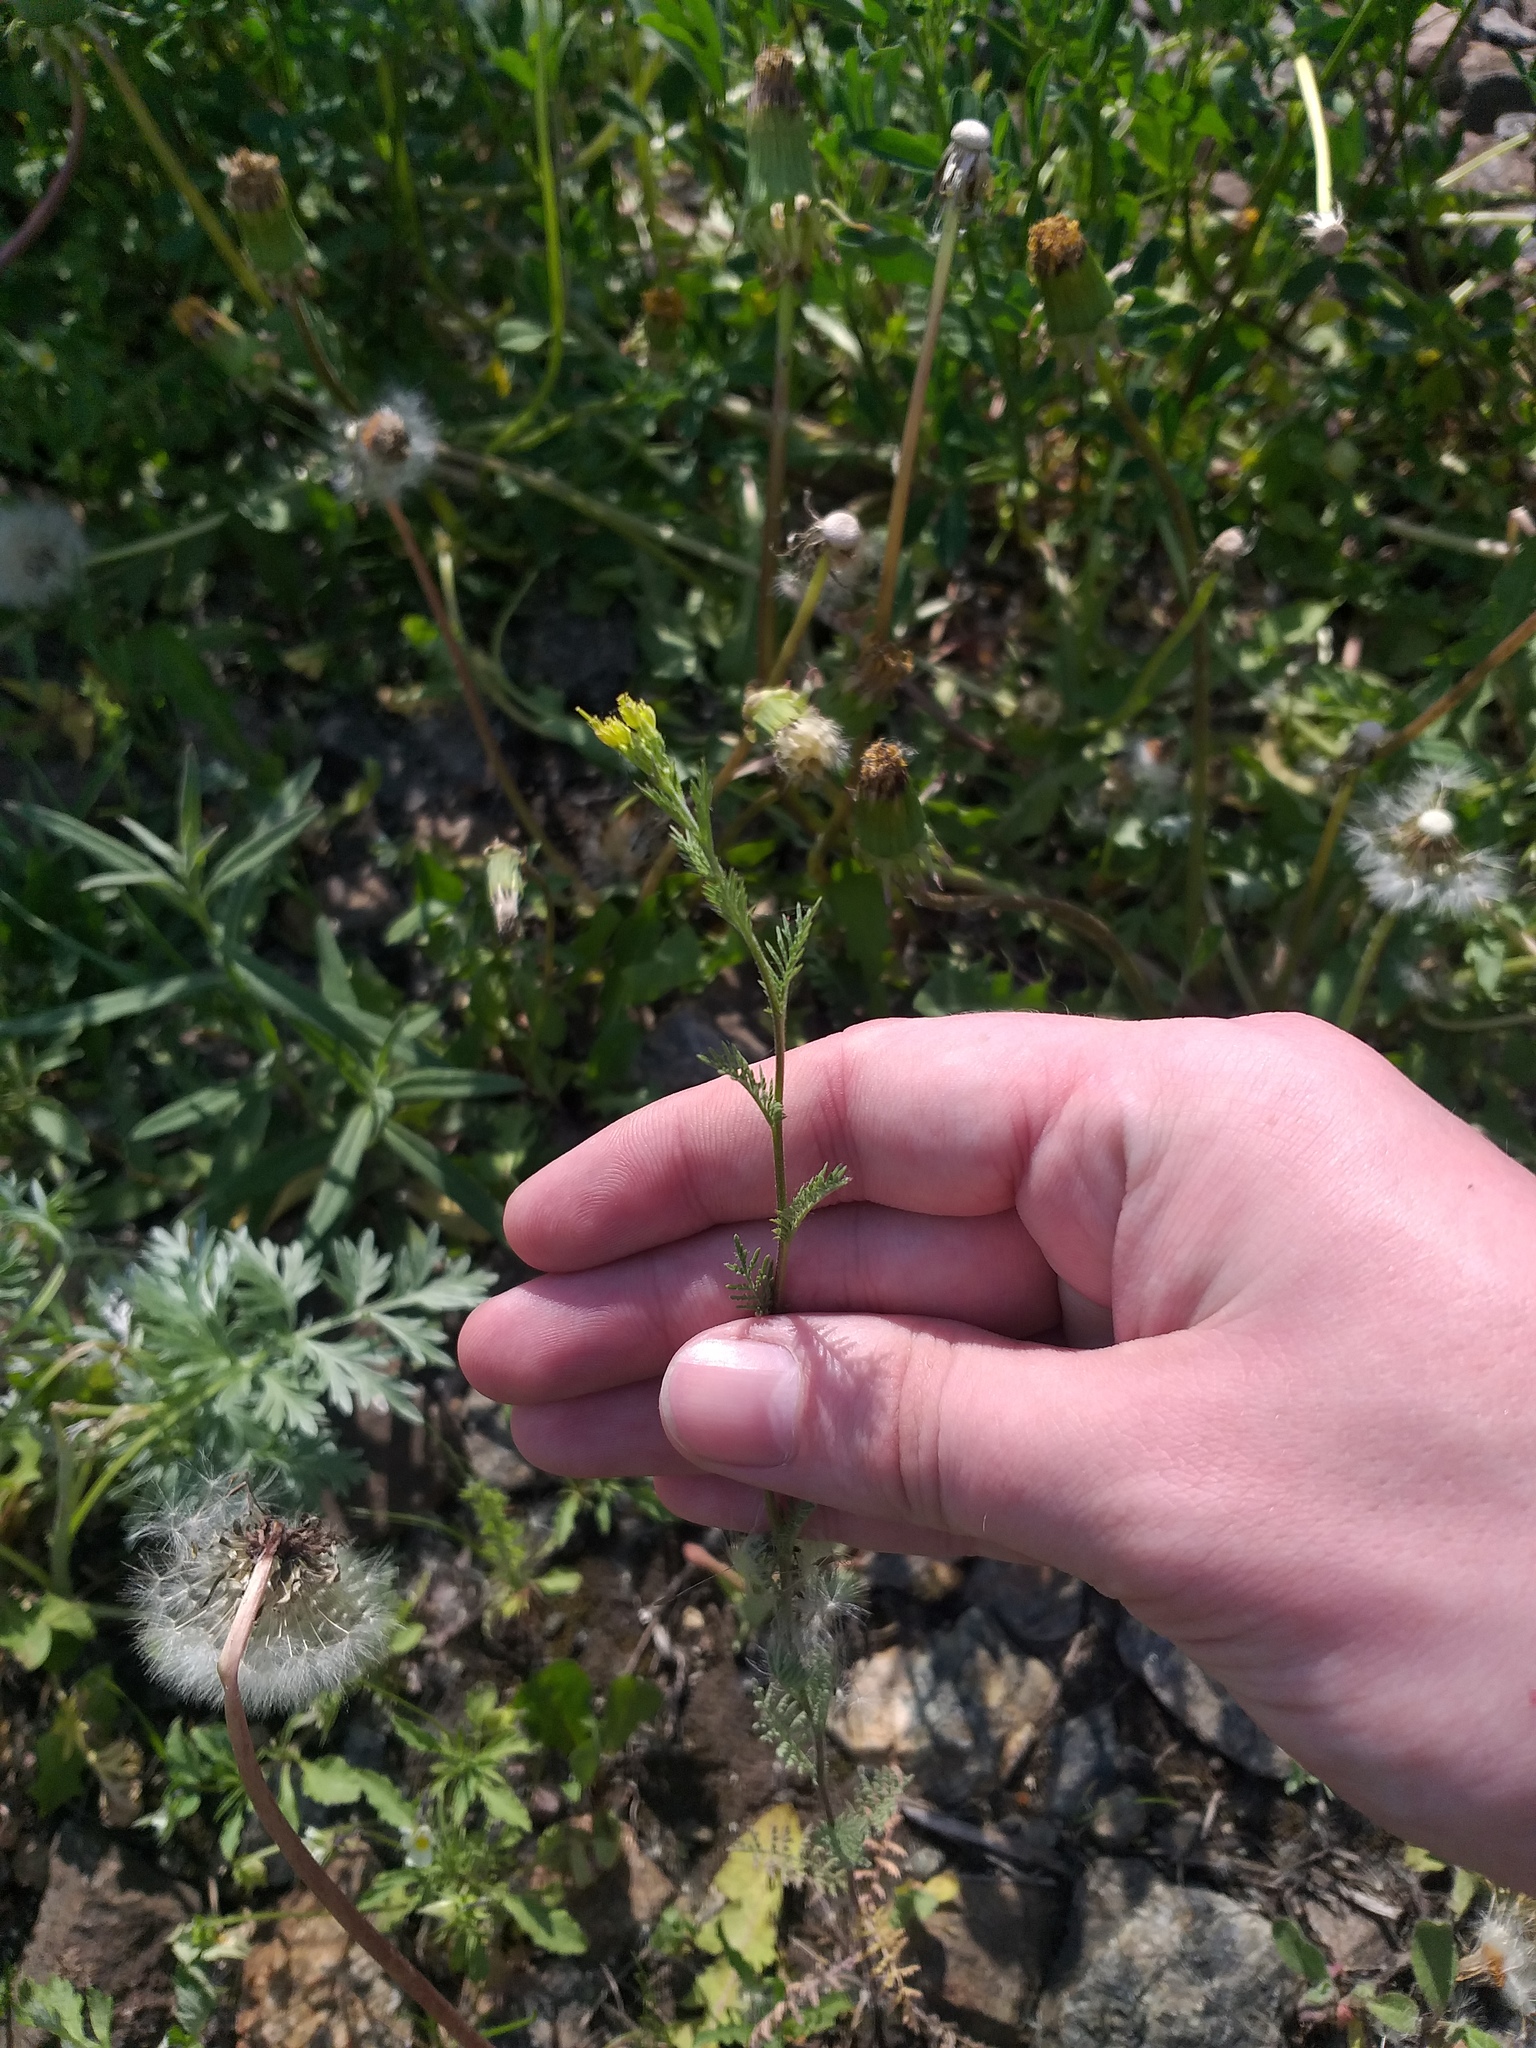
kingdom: Plantae
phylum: Tracheophyta
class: Magnoliopsida
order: Brassicales
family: Brassicaceae
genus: Descurainia
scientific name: Descurainia sophia
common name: Flixweed
